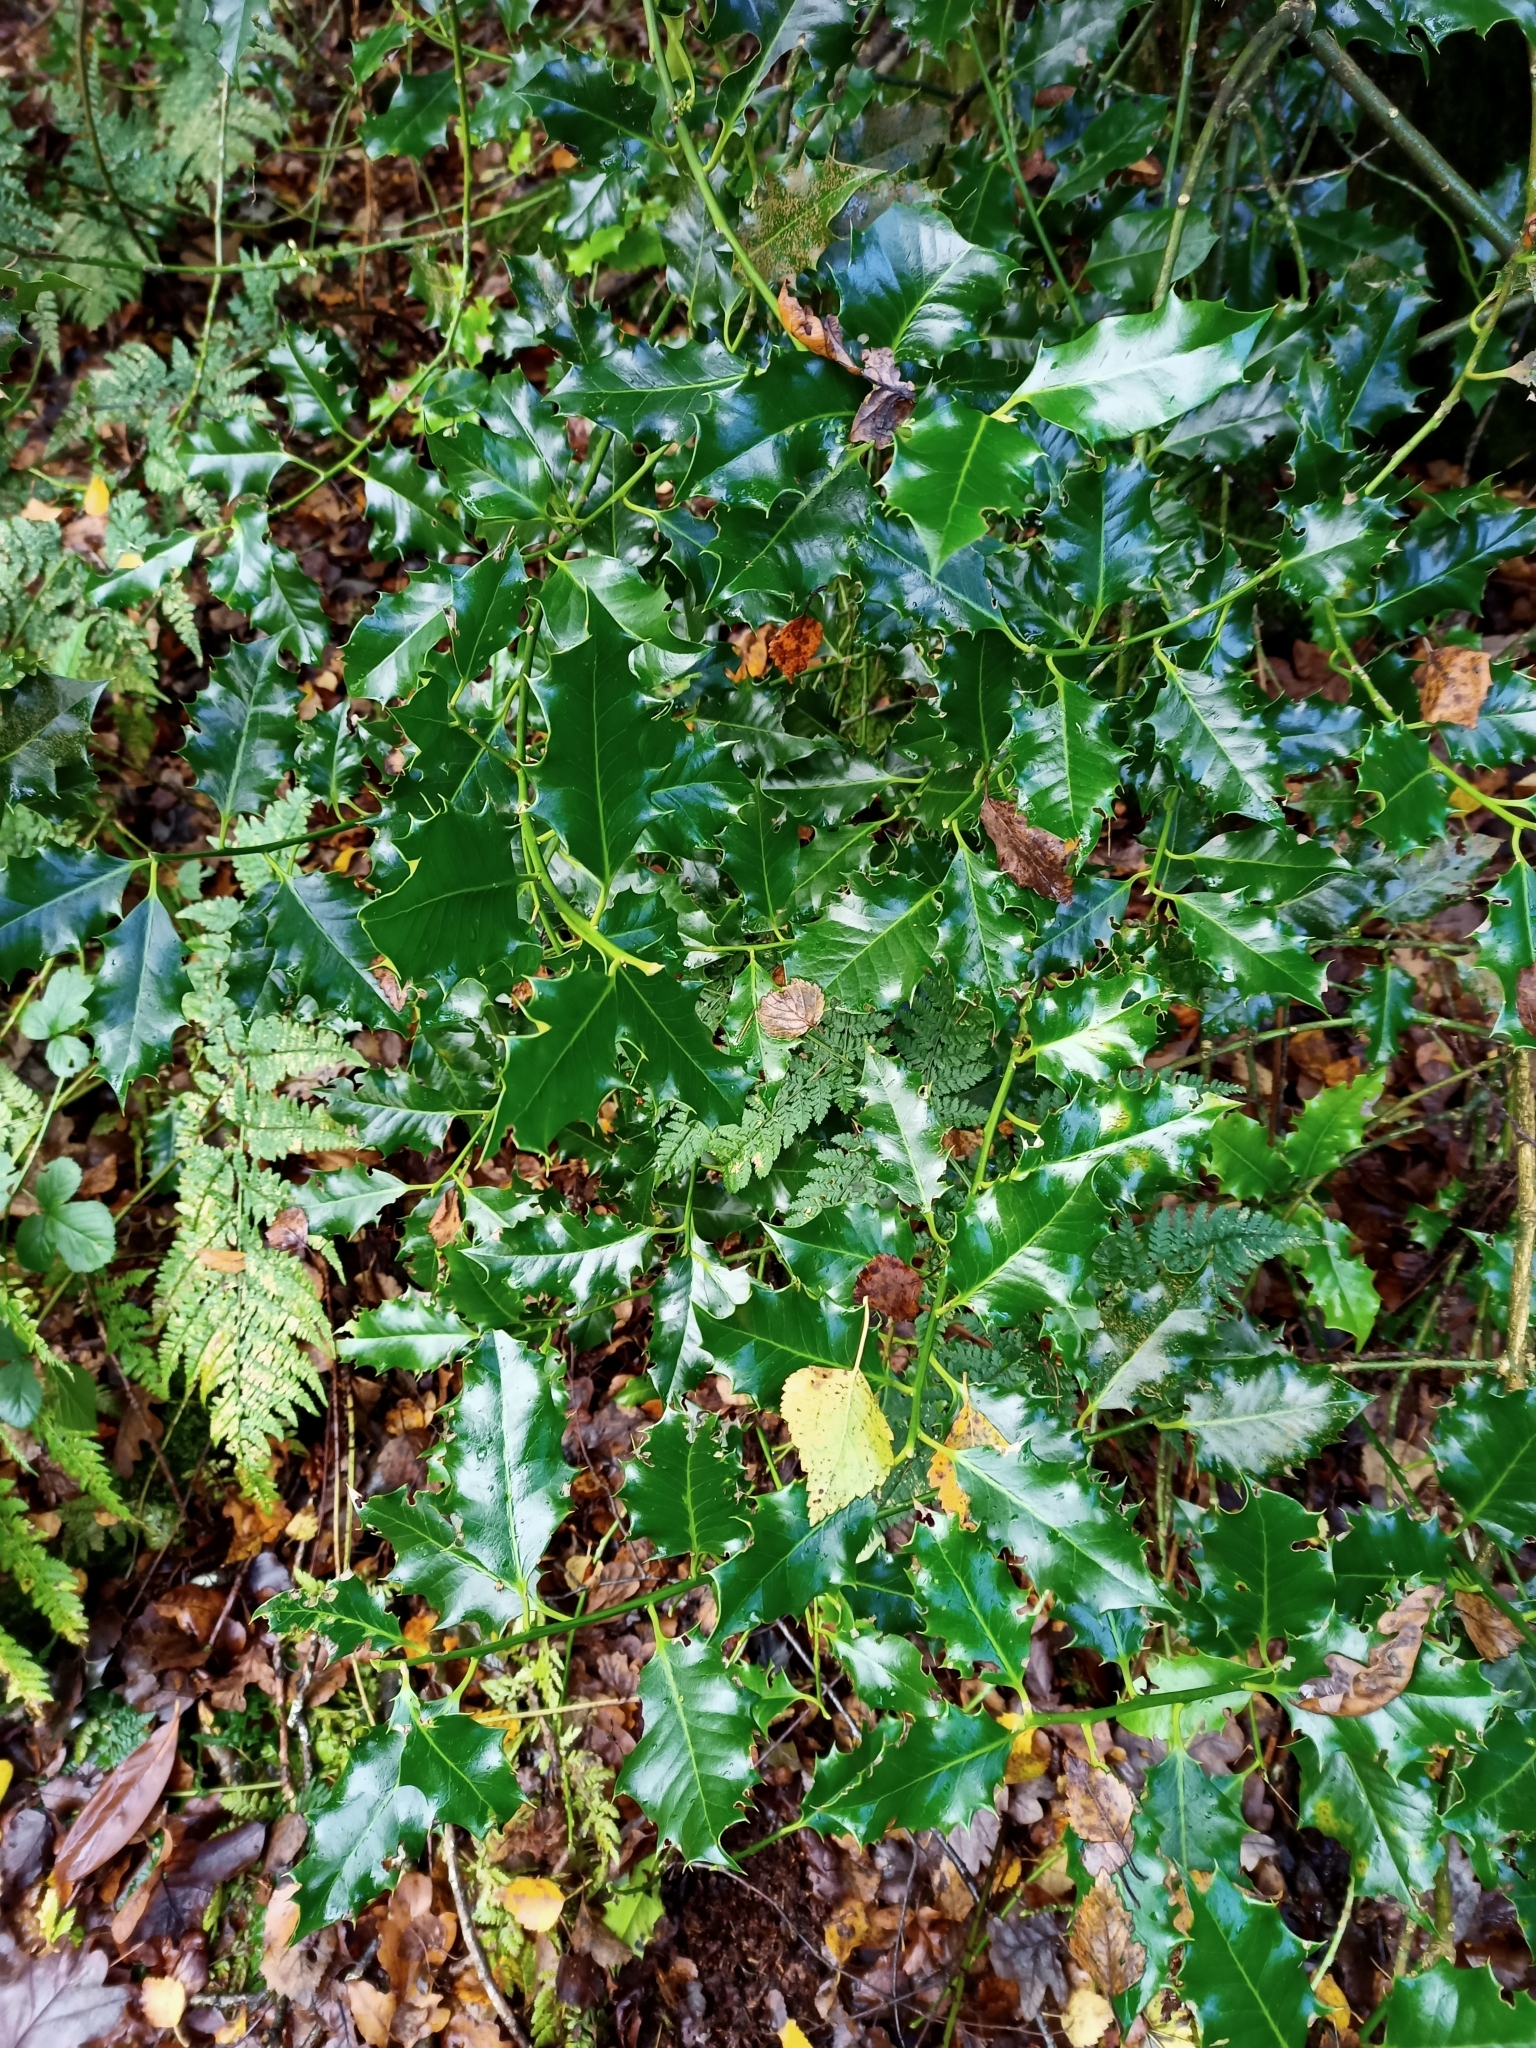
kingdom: Plantae
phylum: Tracheophyta
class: Magnoliopsida
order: Aquifoliales
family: Aquifoliaceae
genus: Ilex
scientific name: Ilex aquifolium
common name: English holly
